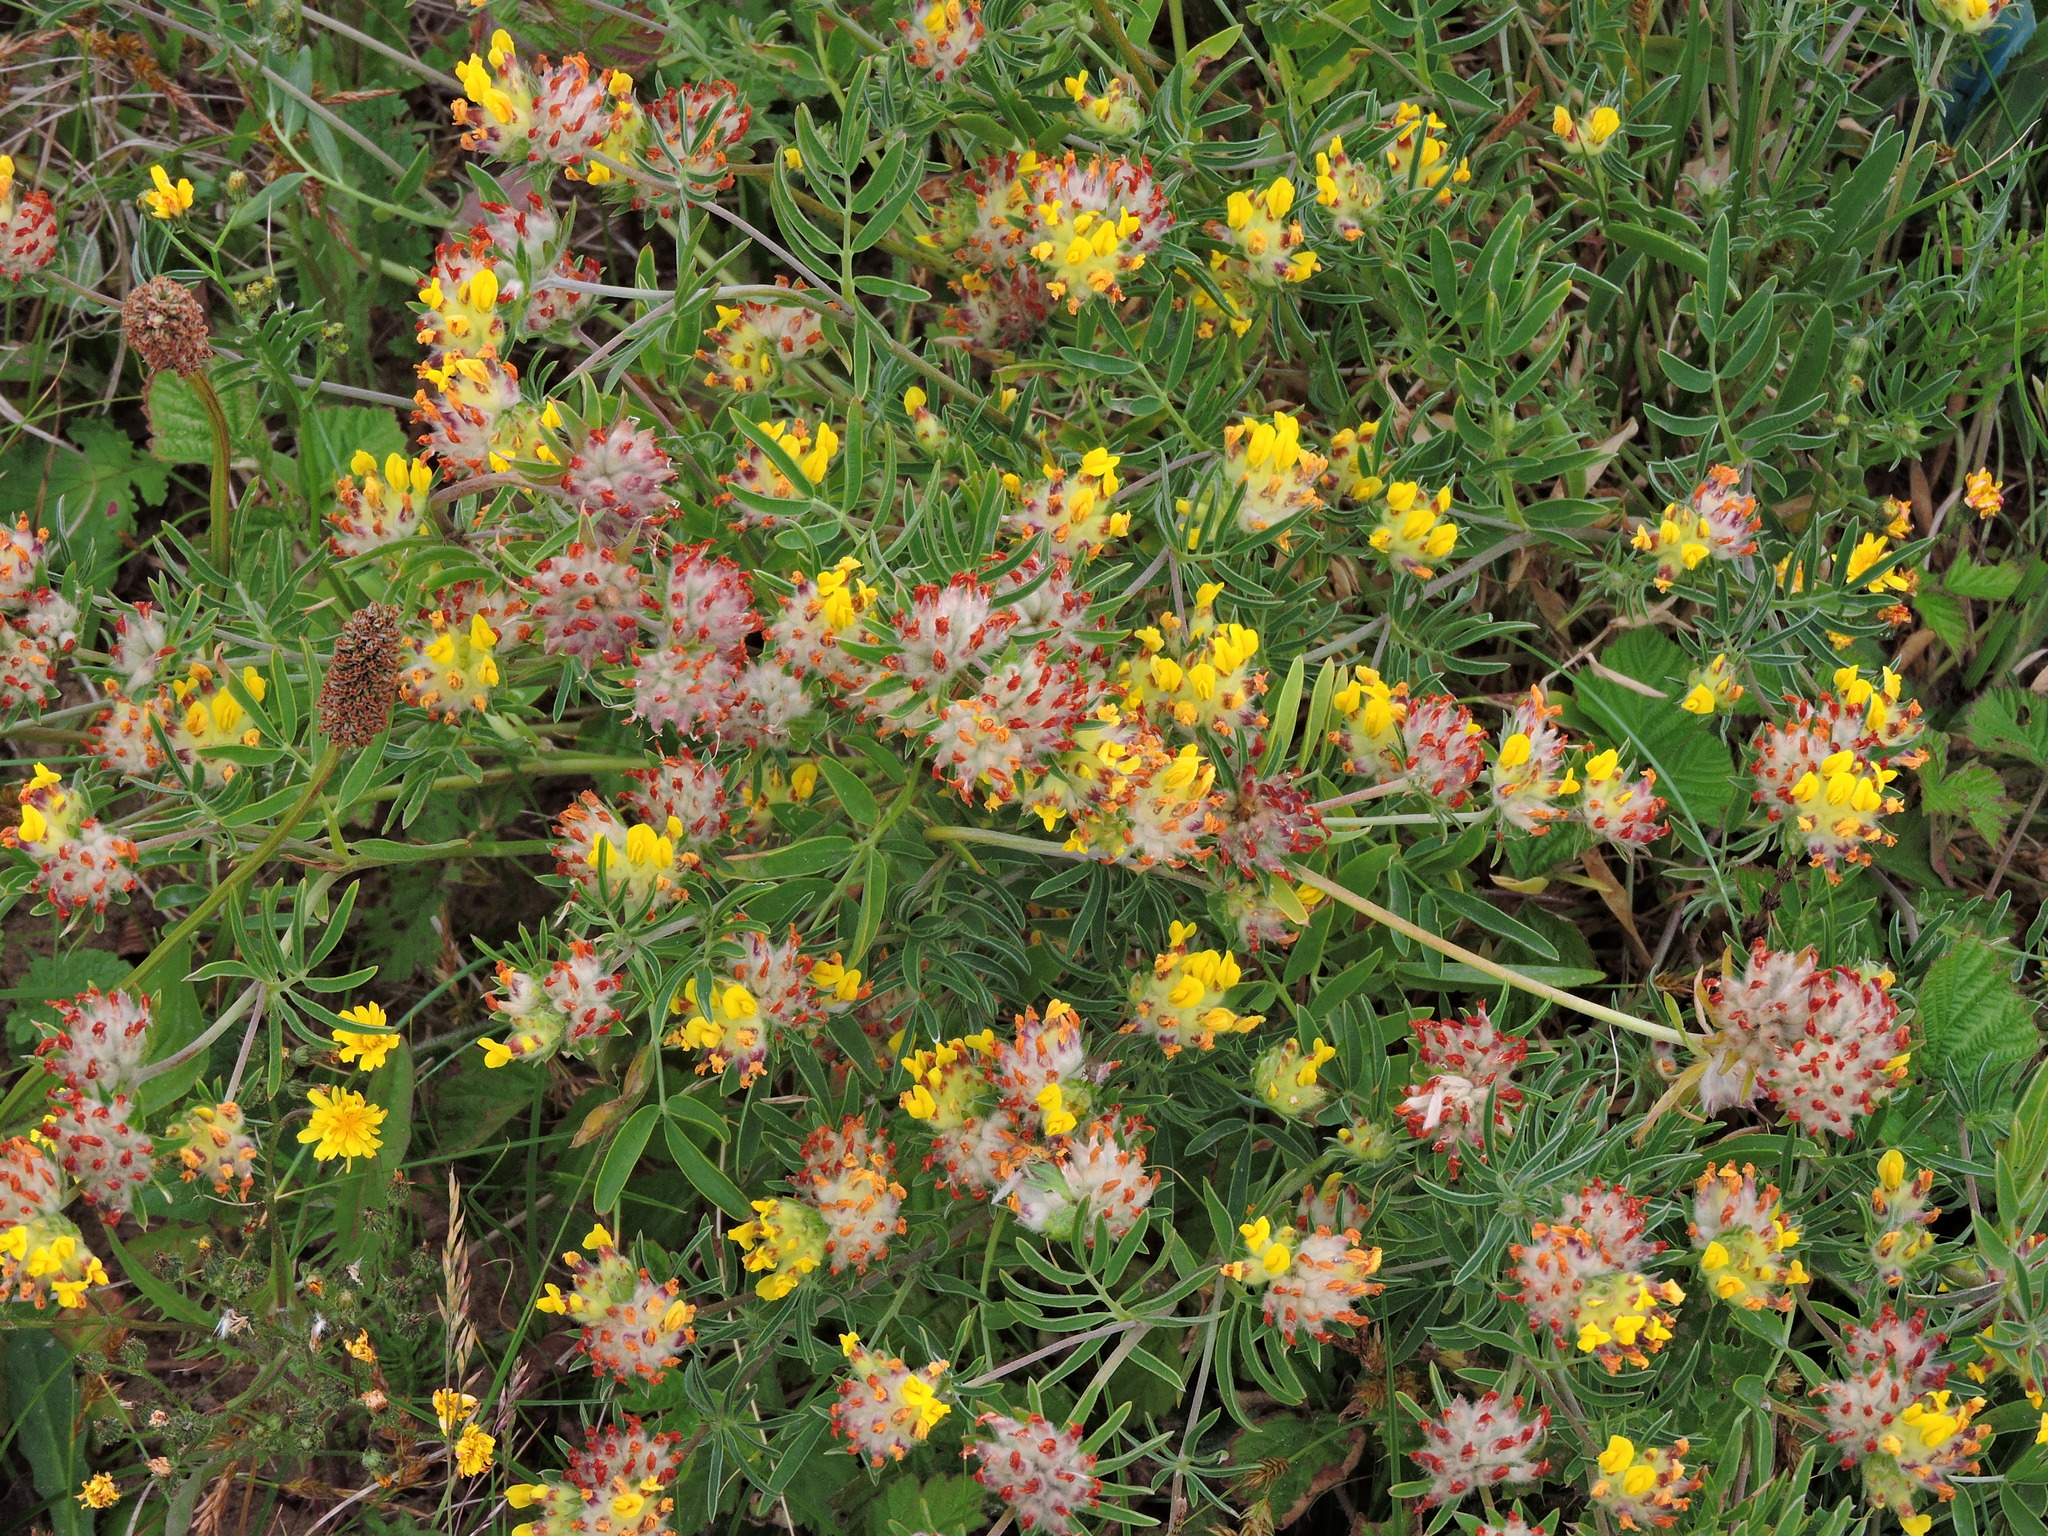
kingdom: Plantae
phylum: Tracheophyta
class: Magnoliopsida
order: Fabales
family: Fabaceae
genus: Anthyllis
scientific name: Anthyllis vulneraria
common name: Kidney vetch
